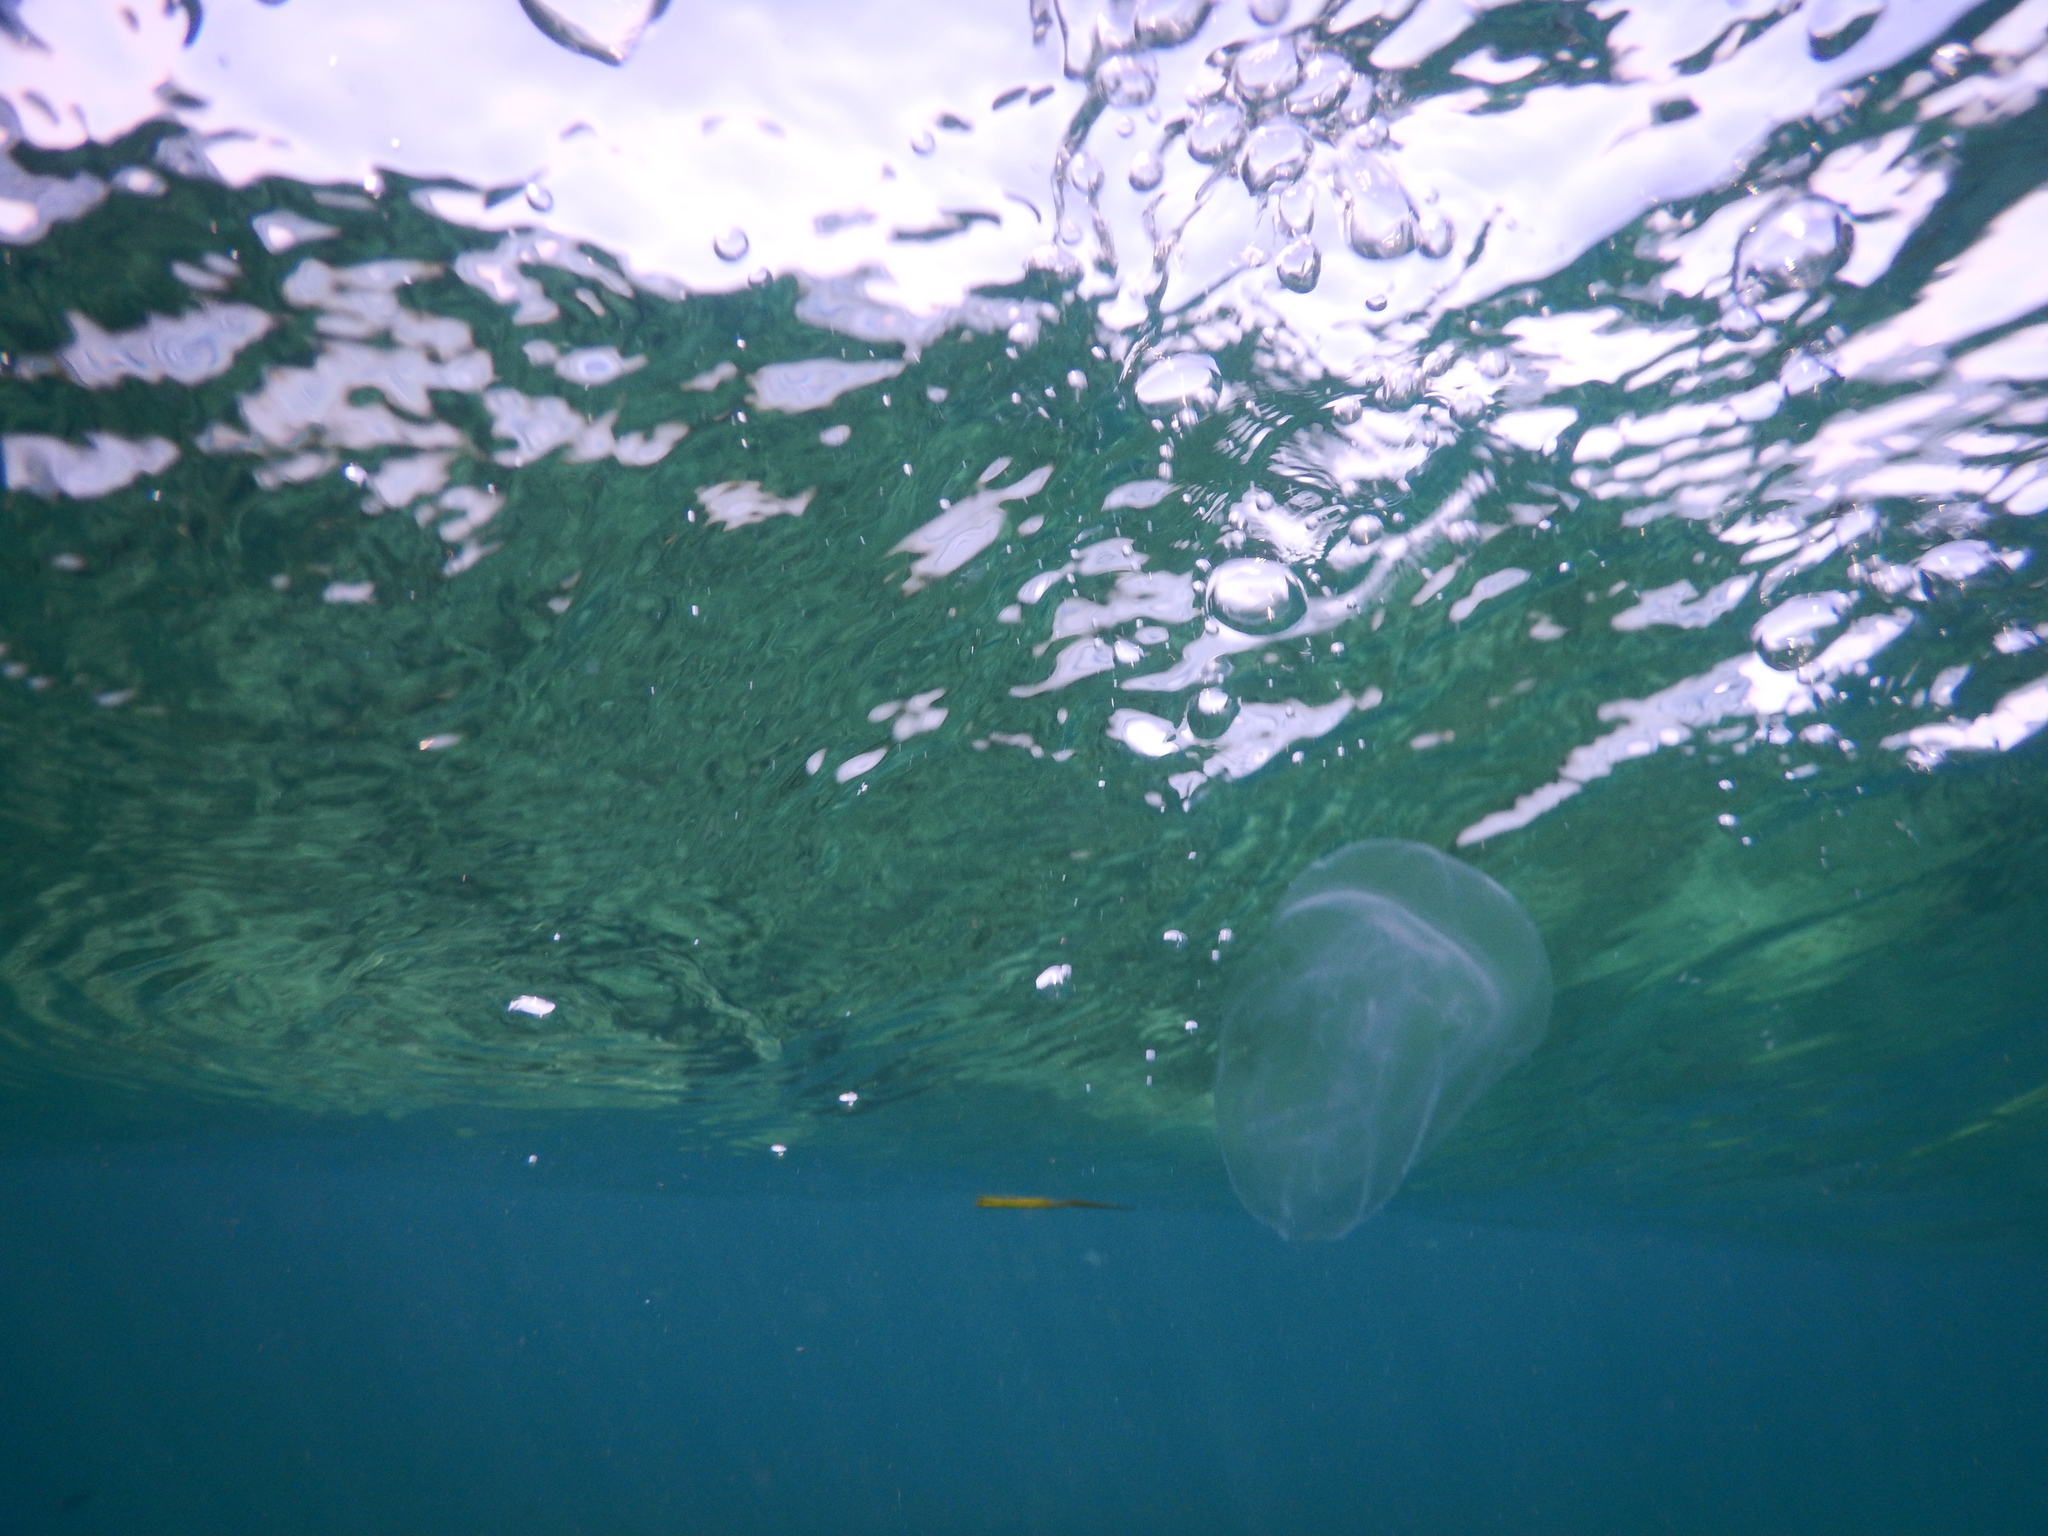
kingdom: Animalia
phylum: Ctenophora
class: Tentaculata
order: Lobata
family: Bolinopsidae
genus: Mnemiopsis
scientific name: Mnemiopsis leidyi
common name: American comb jelly
